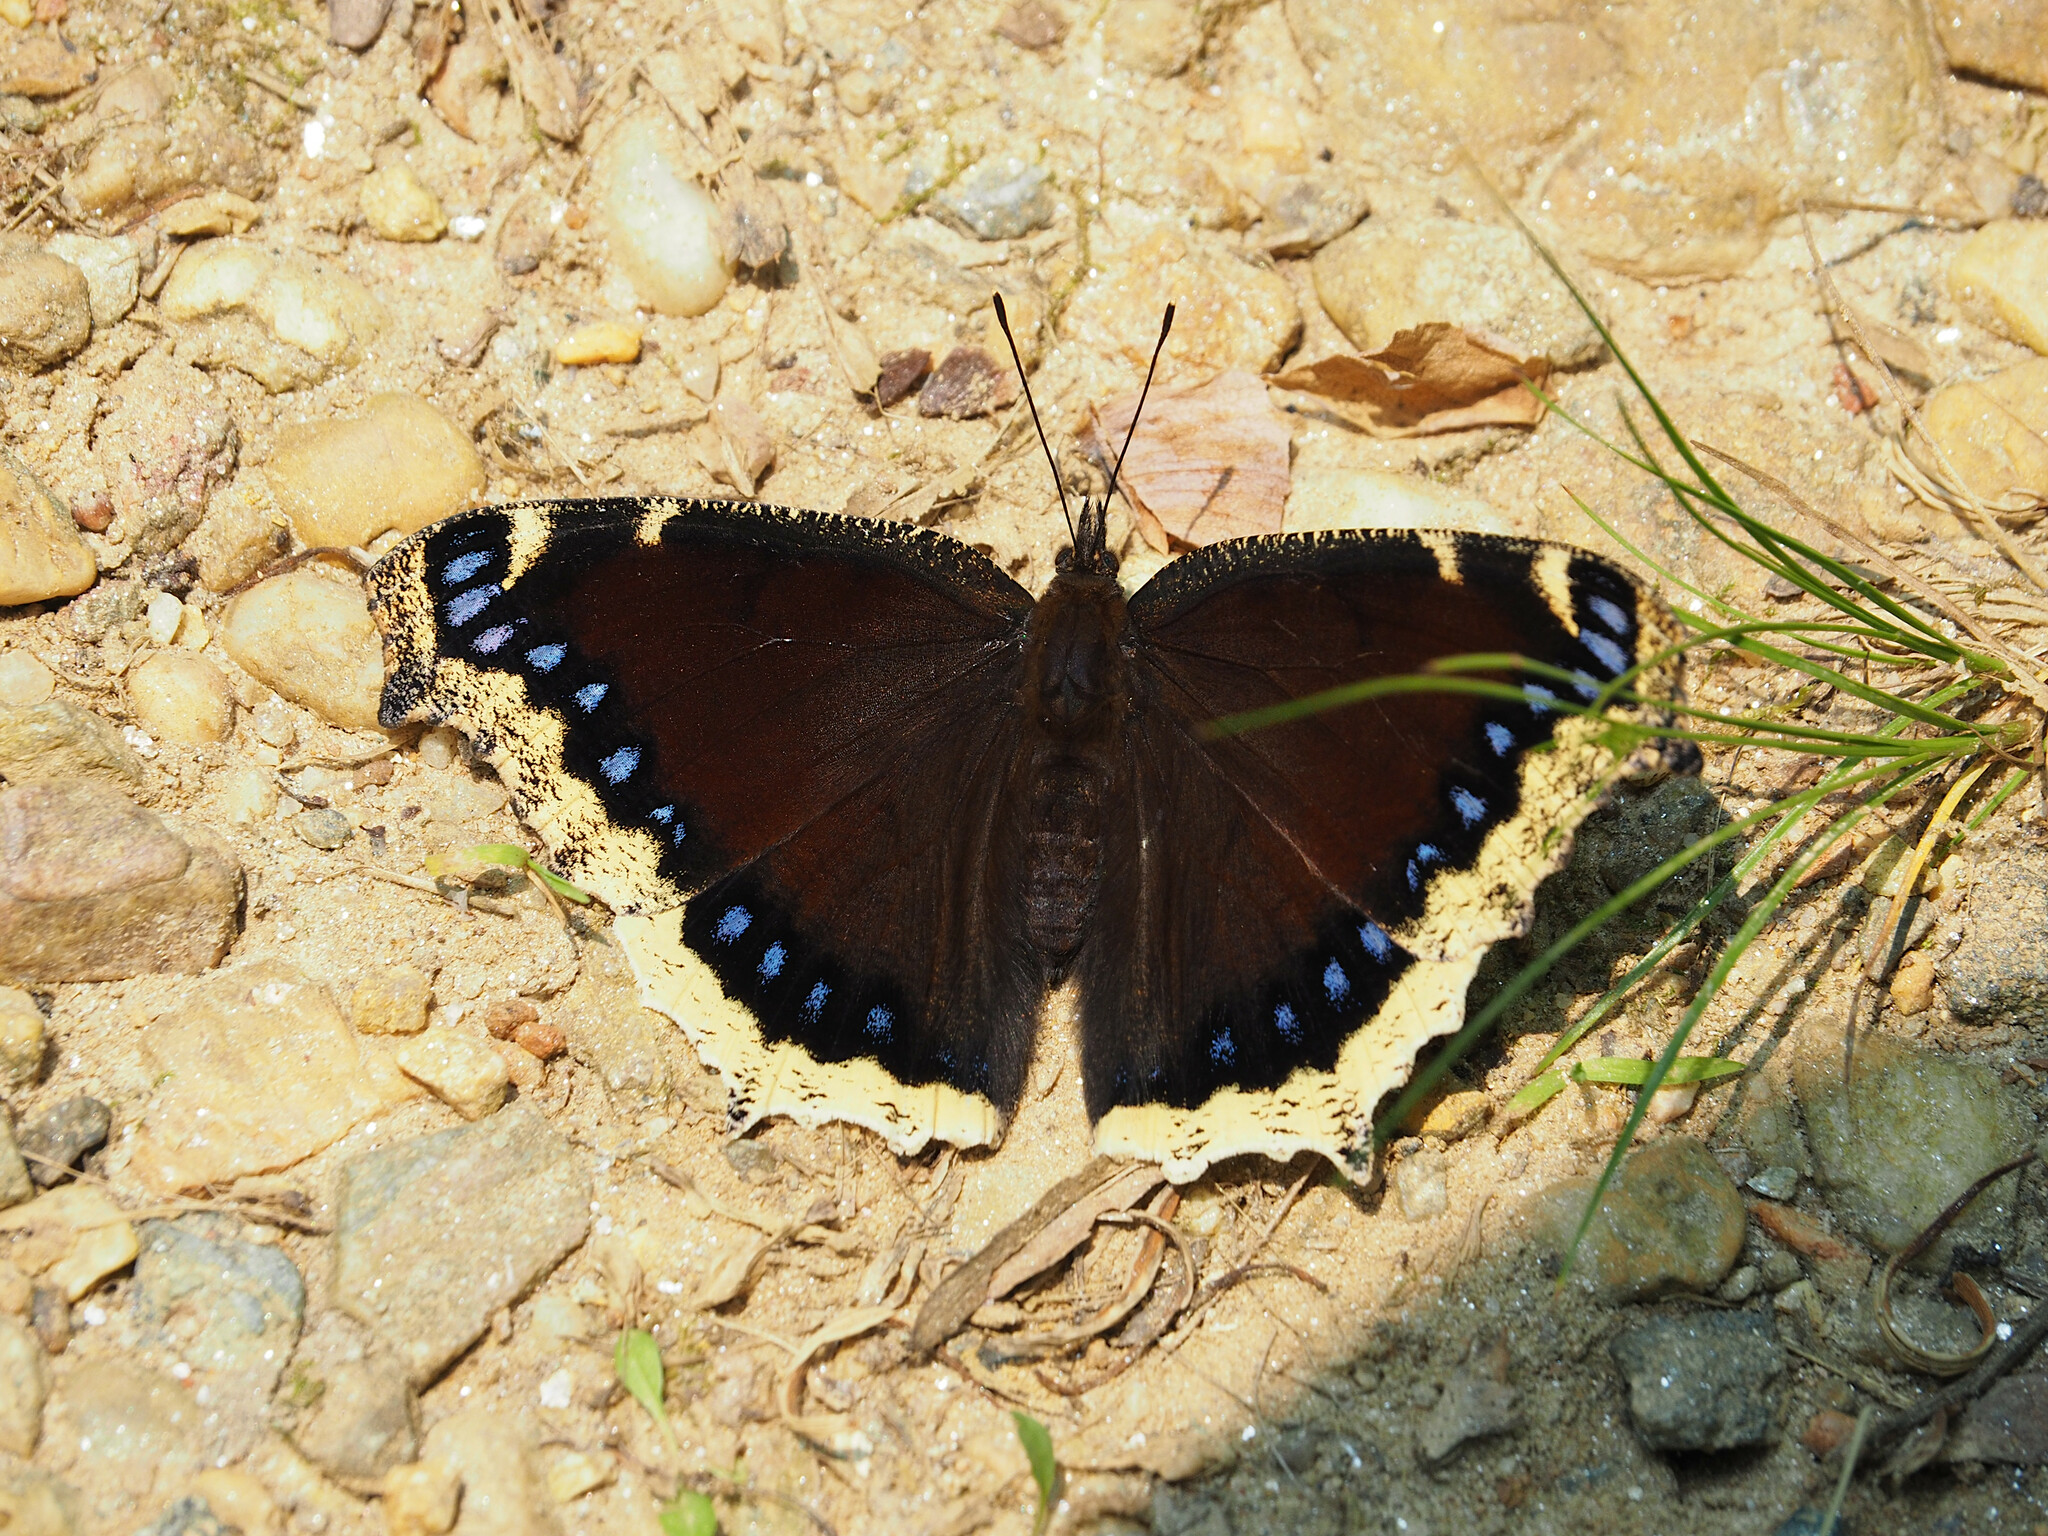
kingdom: Animalia
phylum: Arthropoda
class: Insecta
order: Lepidoptera
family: Nymphalidae
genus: Nymphalis
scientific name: Nymphalis antiopa
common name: Camberwell beauty
